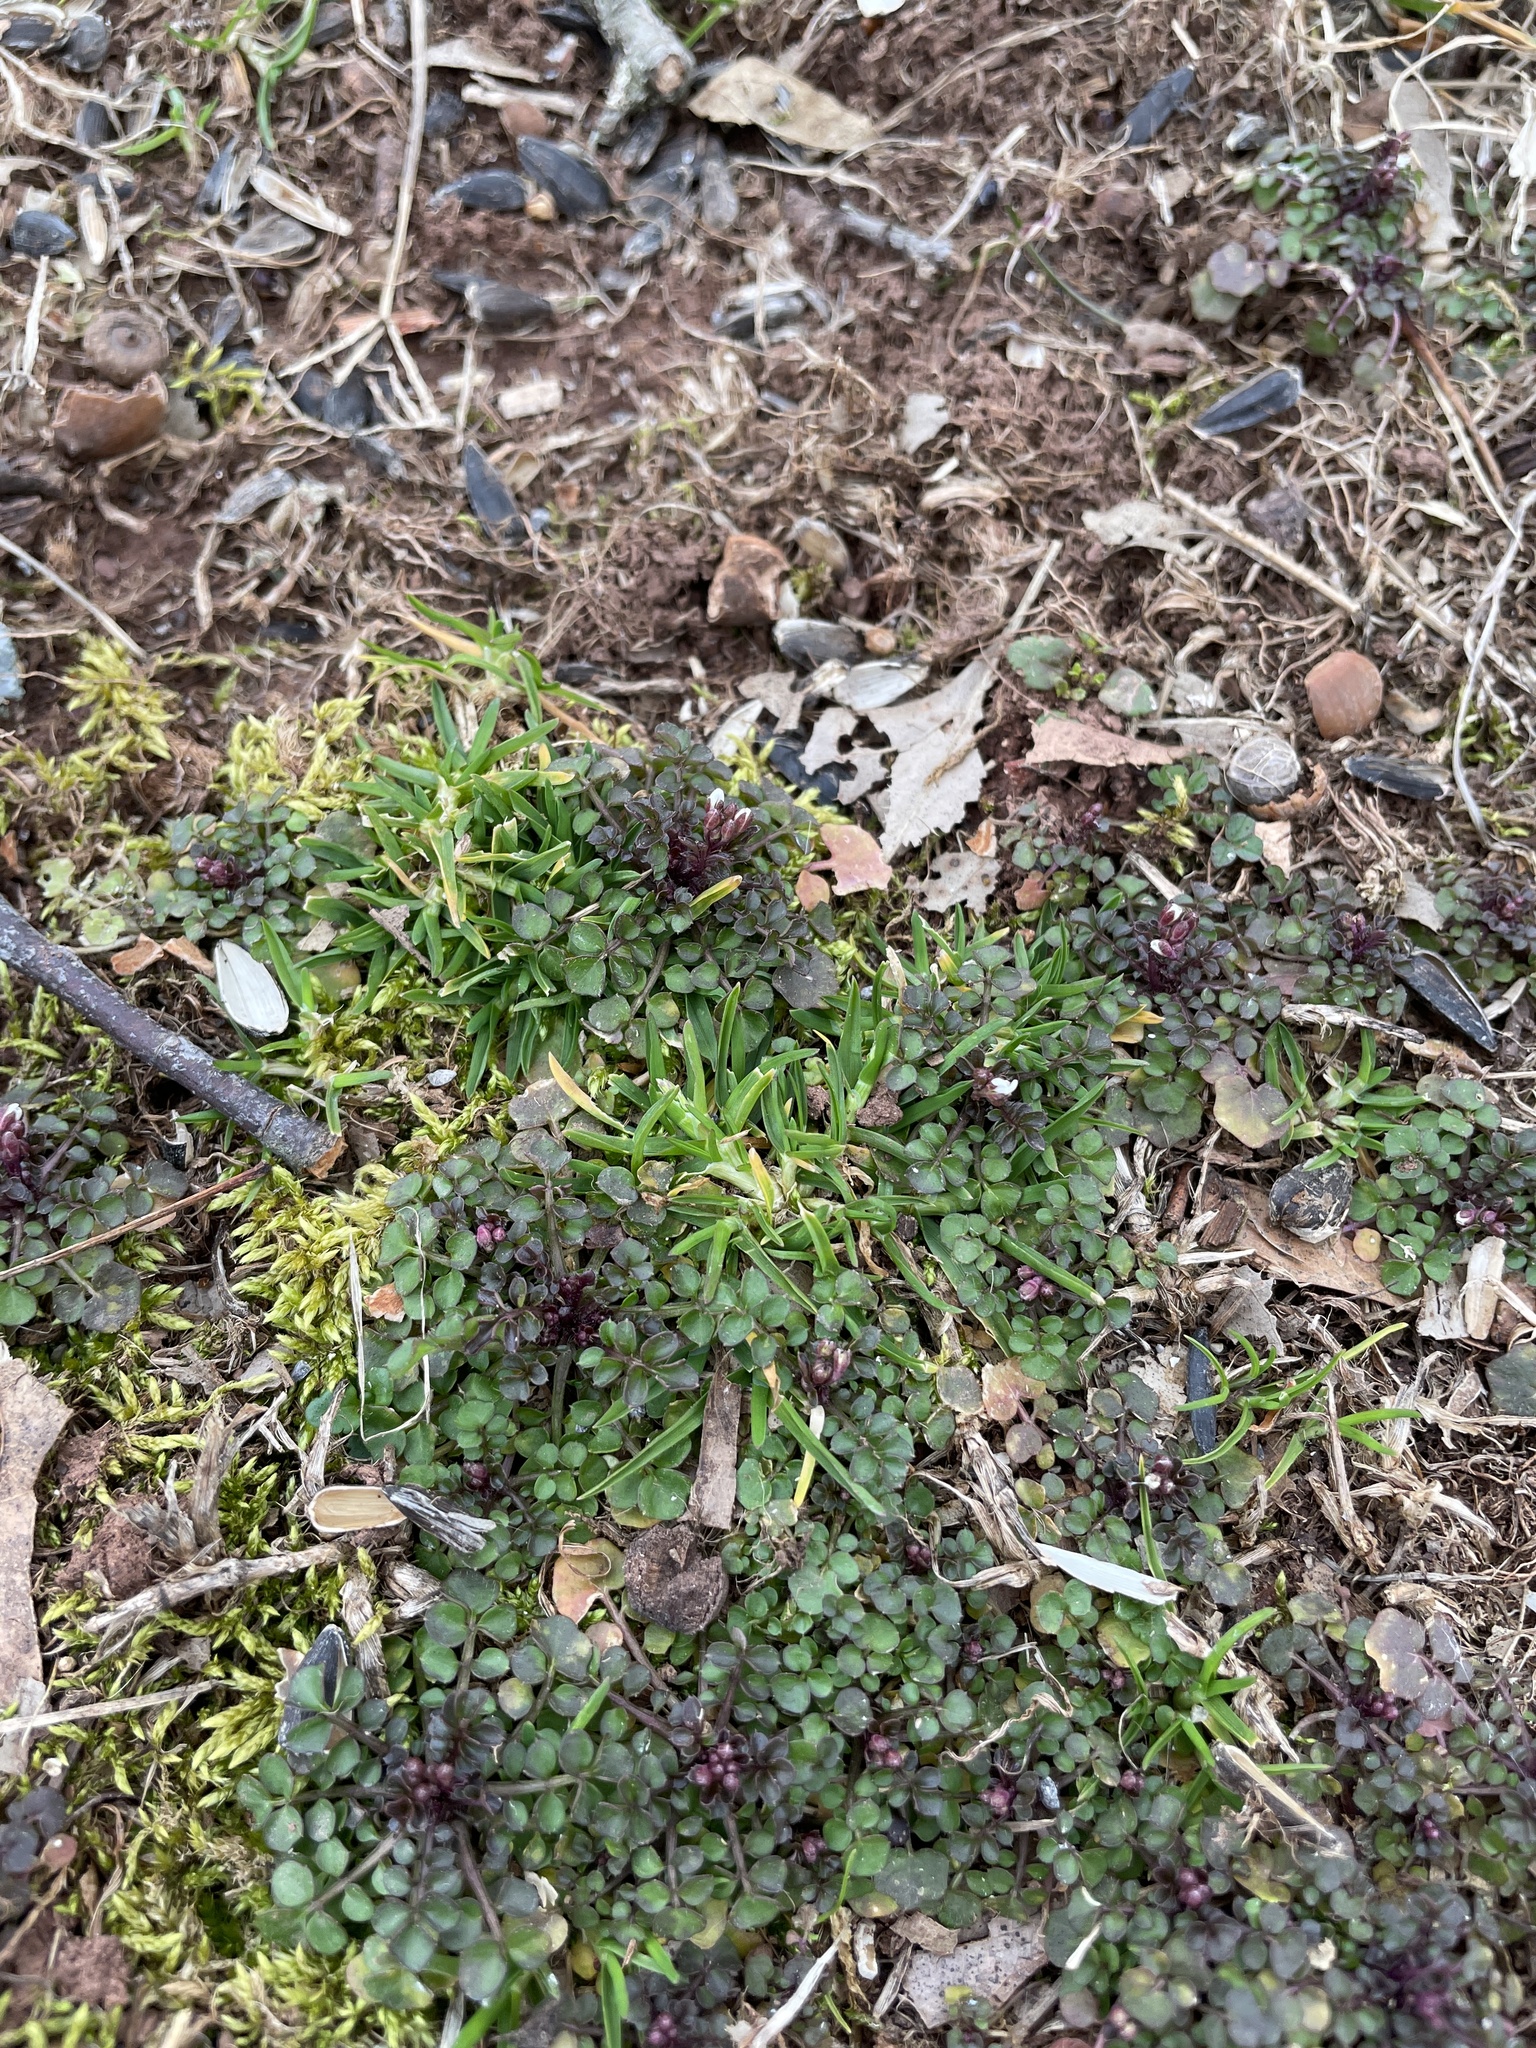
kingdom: Plantae
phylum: Tracheophyta
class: Magnoliopsida
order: Brassicales
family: Brassicaceae
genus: Cardamine
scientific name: Cardamine hirsuta
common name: Hairy bittercress
